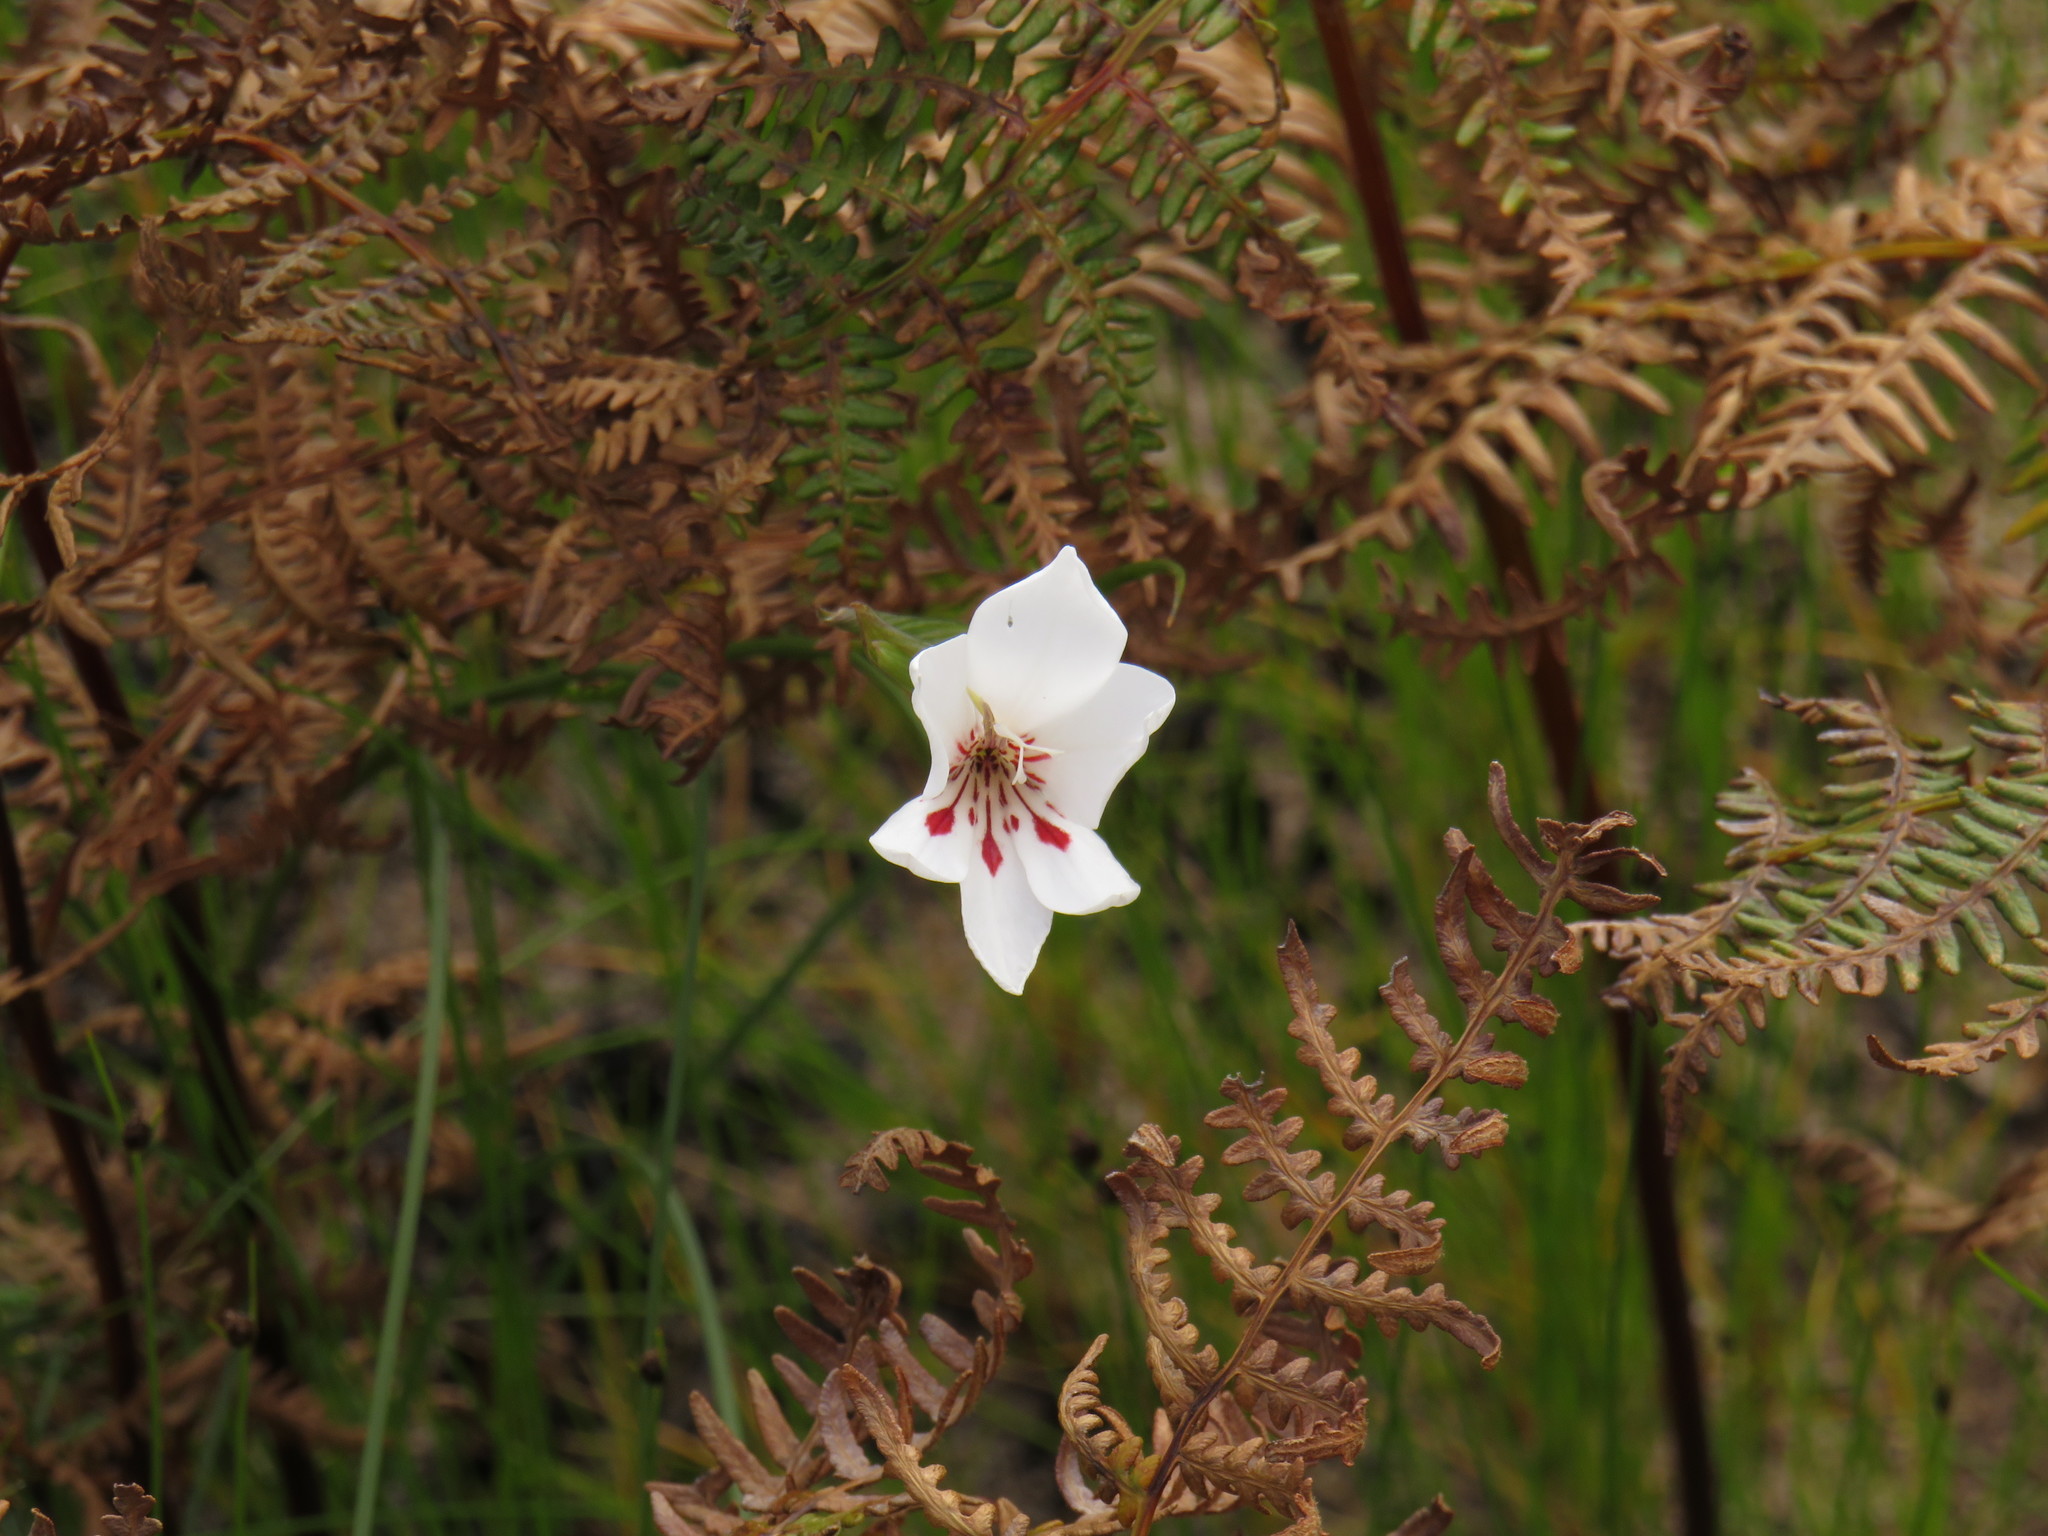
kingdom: Plantae
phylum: Tracheophyta
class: Liliopsida
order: Asparagales
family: Iridaceae
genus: Gladiolus
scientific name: Gladiolus debilis
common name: Painted-lady
